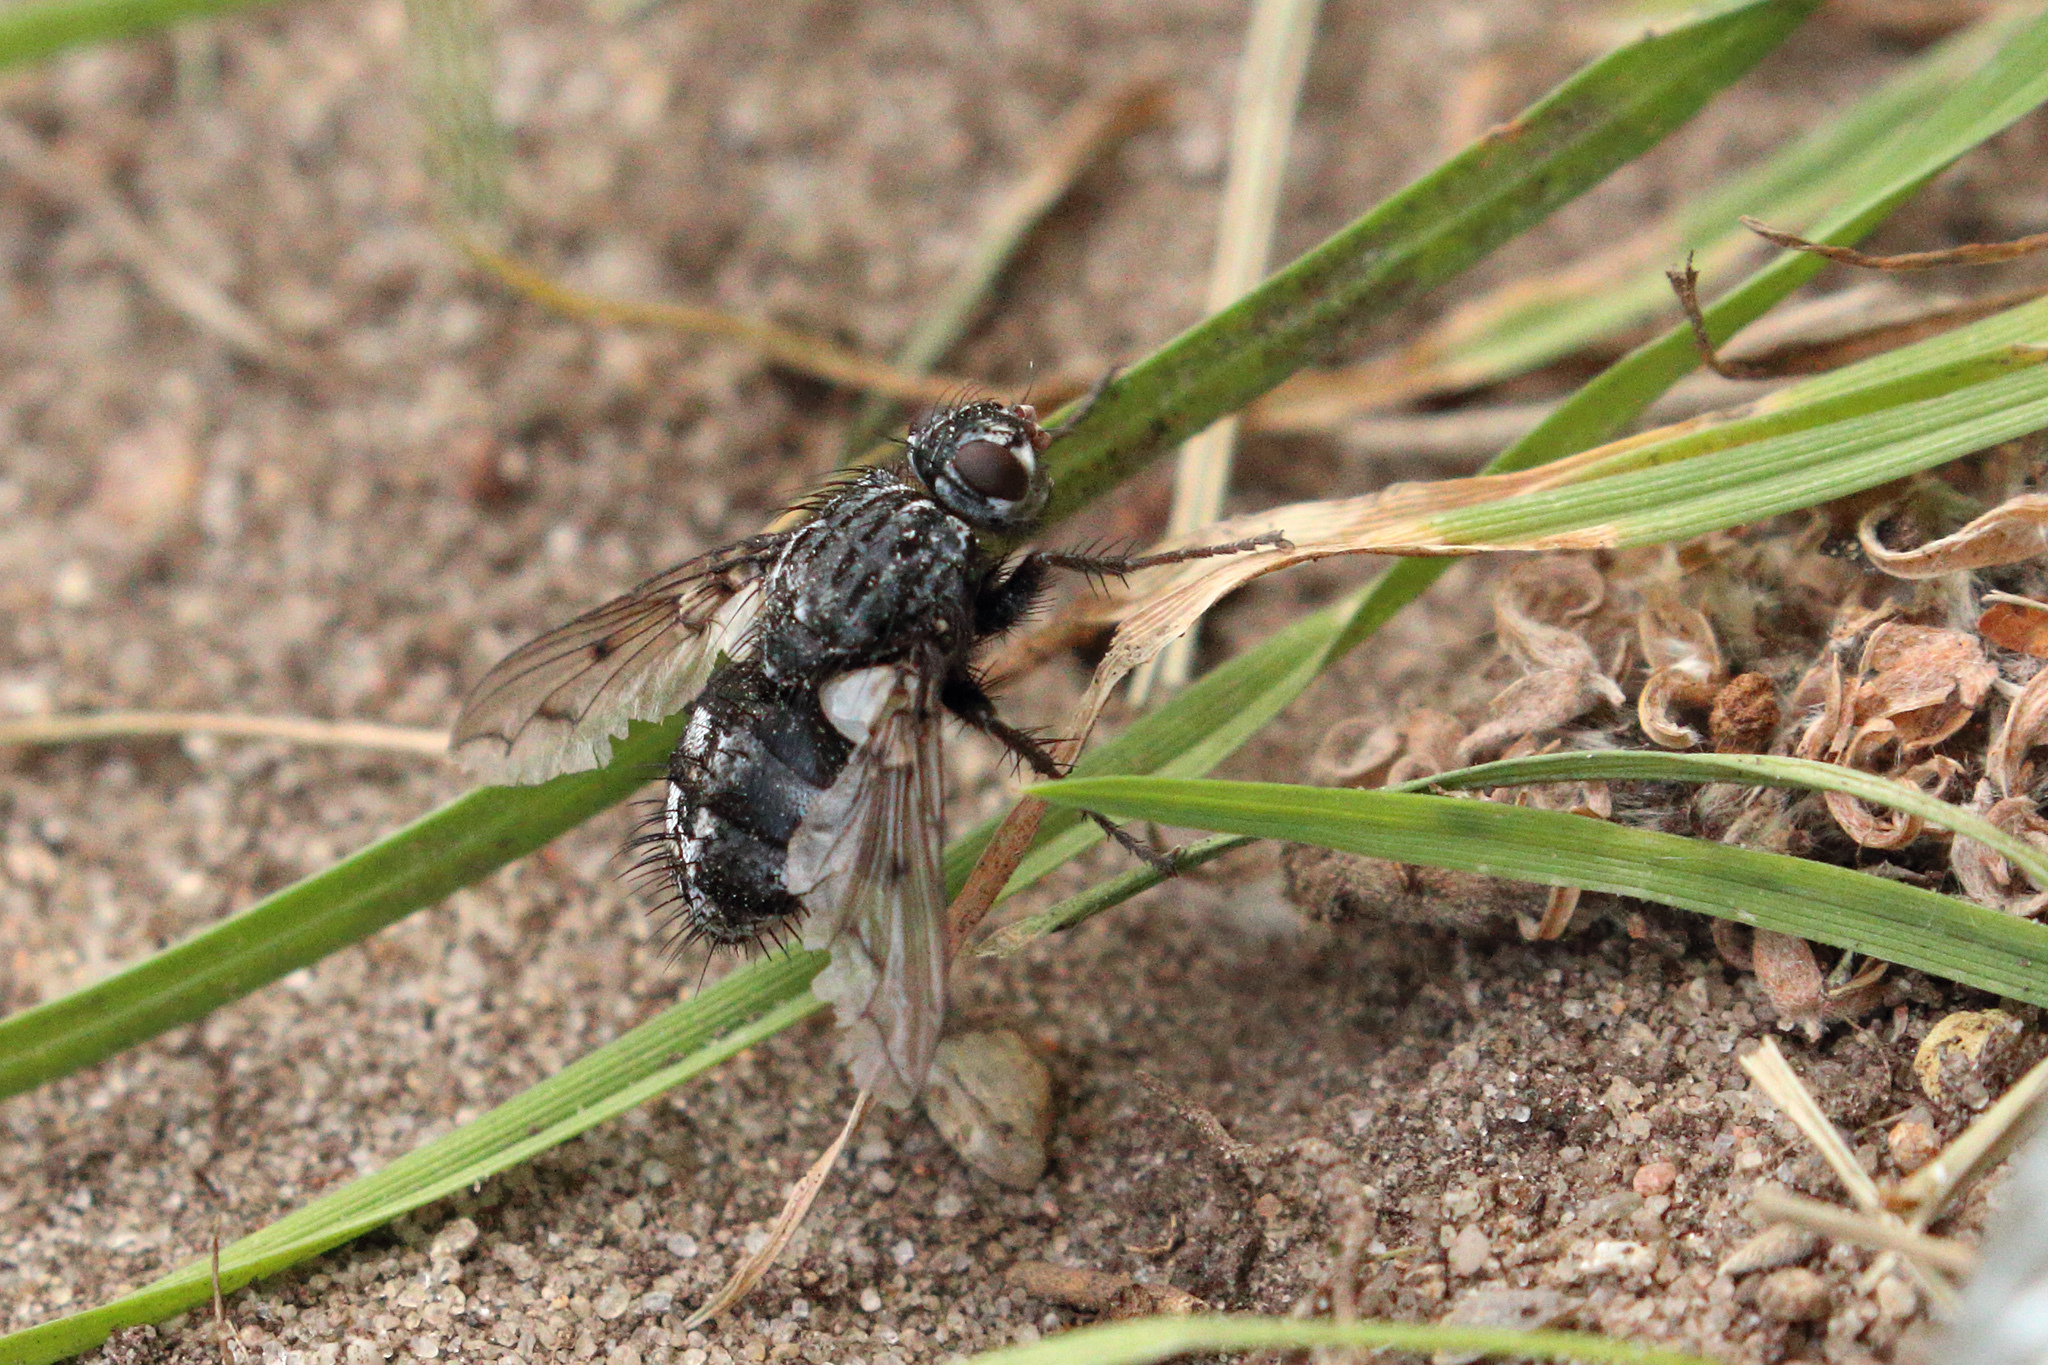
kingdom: Animalia
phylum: Arthropoda
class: Insecta
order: Diptera
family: Tachinidae
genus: Trixa
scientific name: Trixa conspersa
